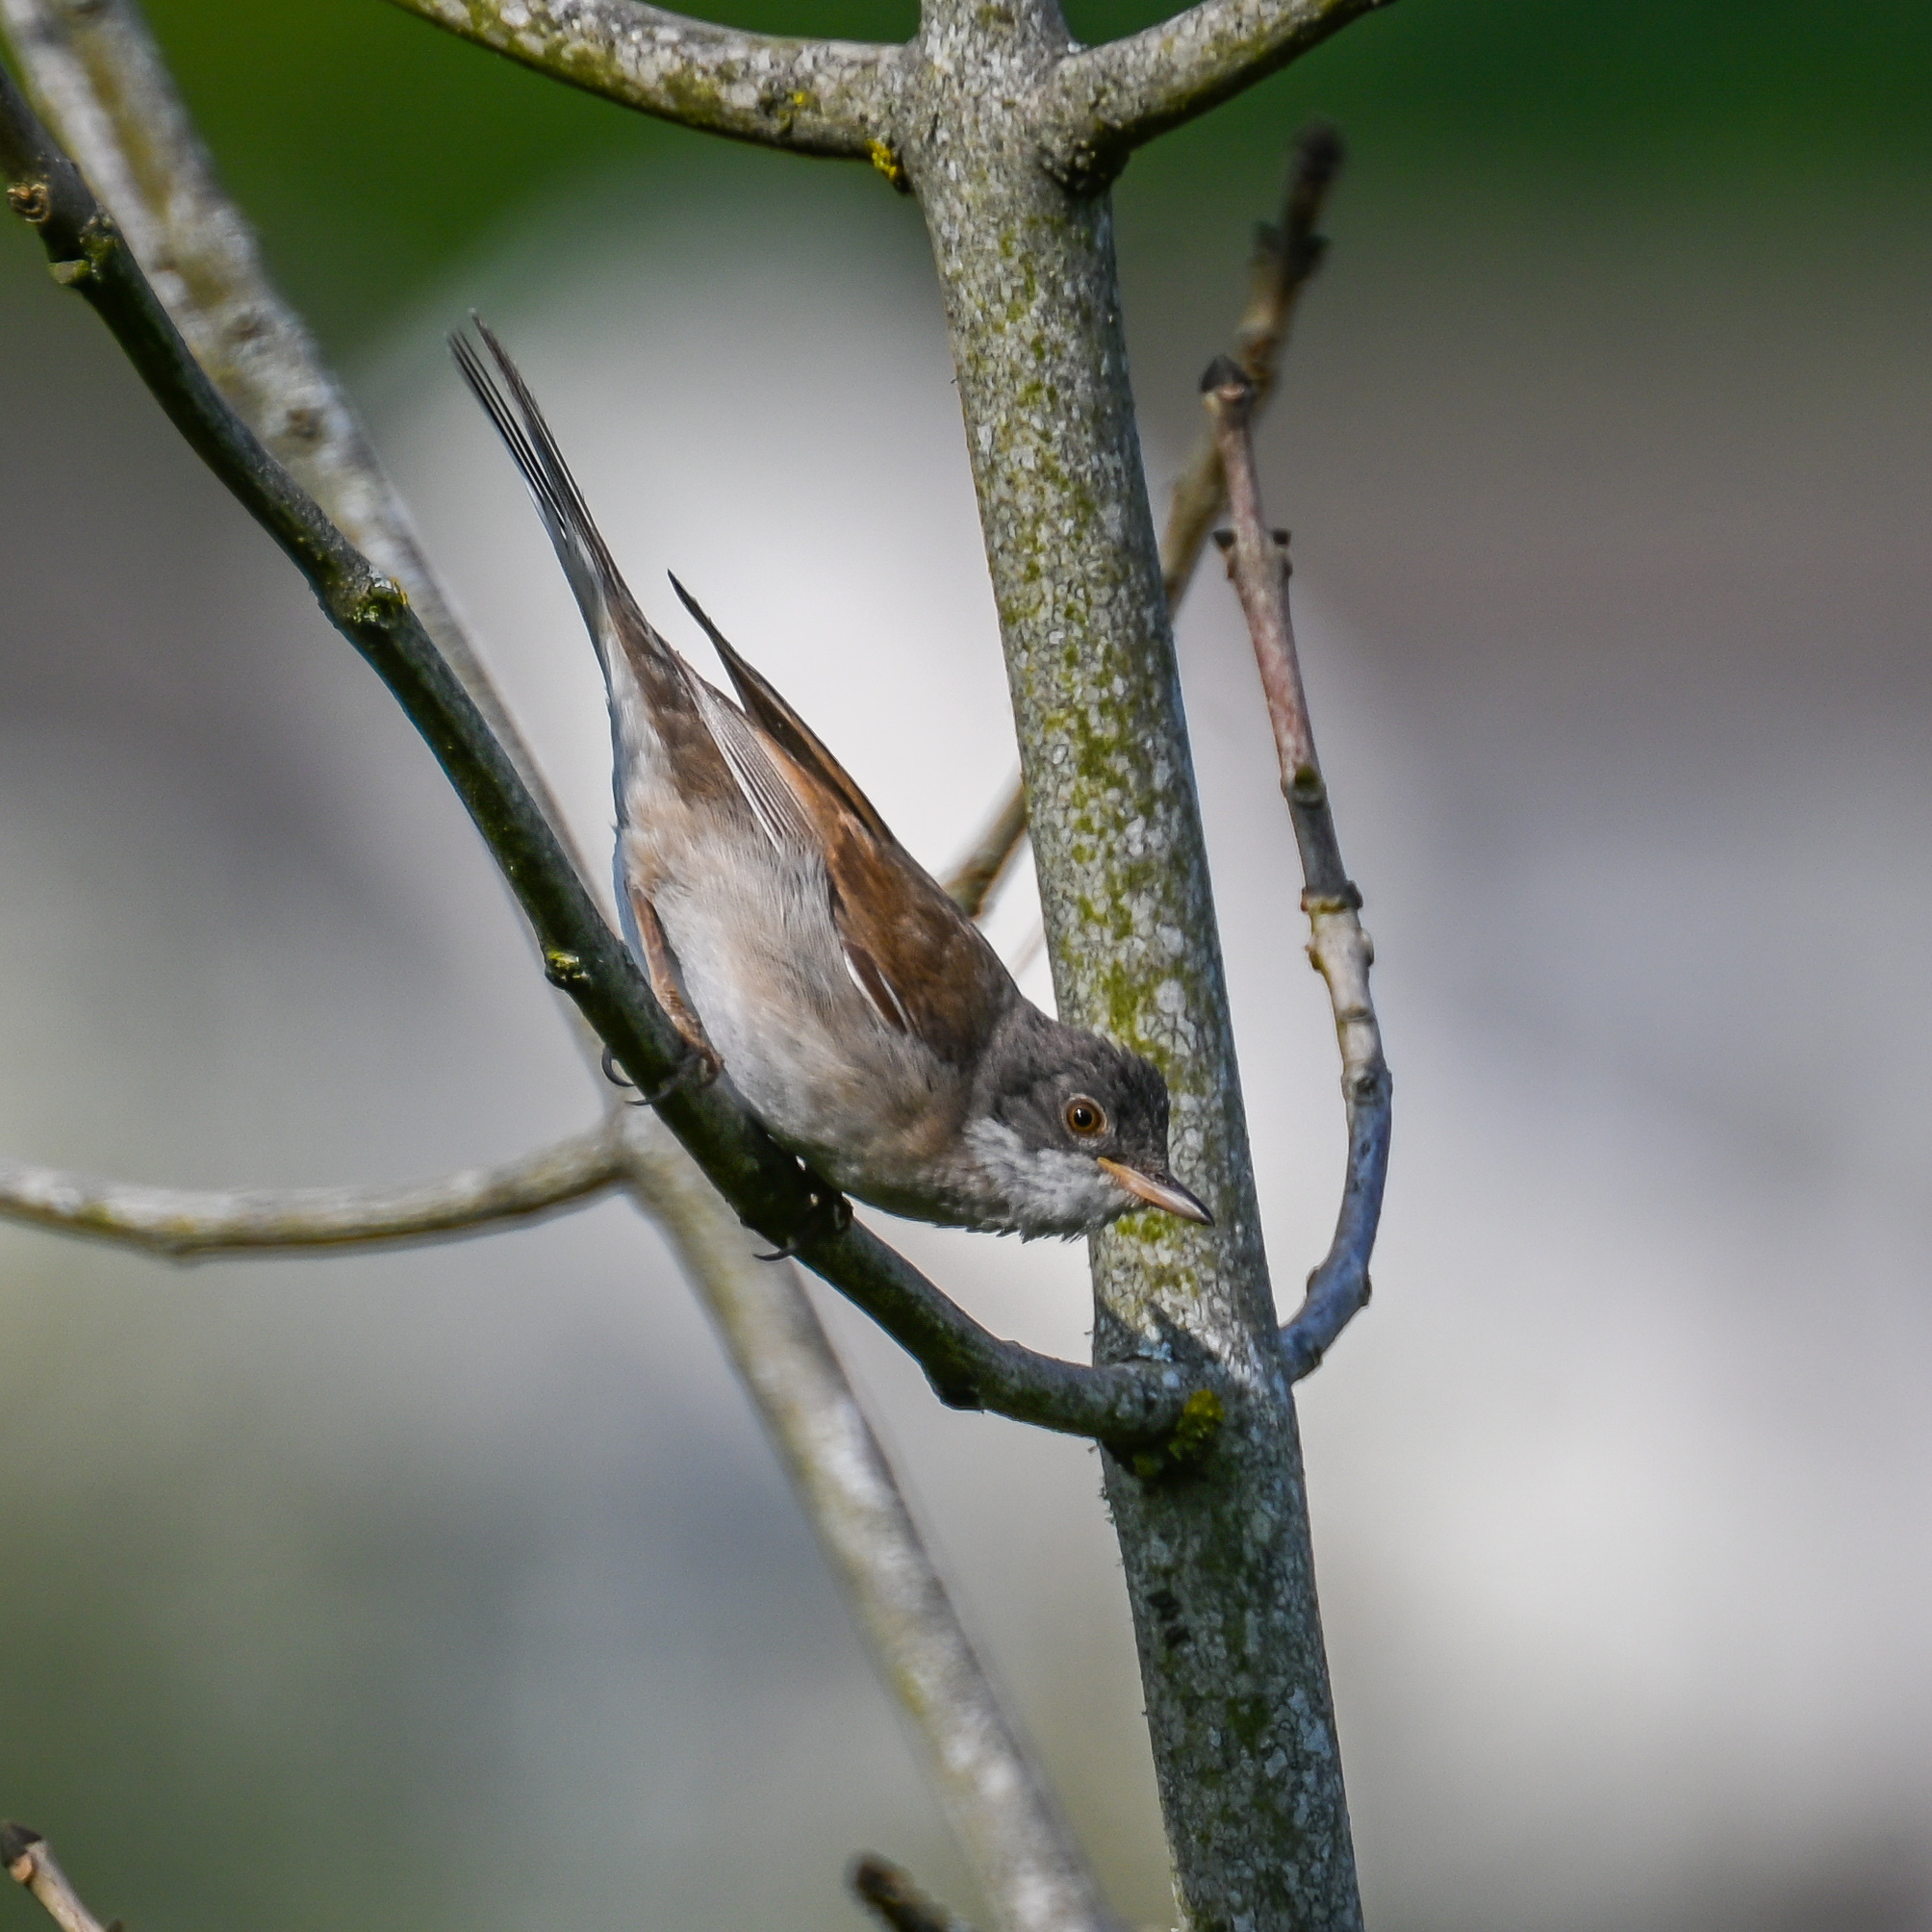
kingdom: Animalia
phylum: Chordata
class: Aves
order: Passeriformes
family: Sylviidae
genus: Sylvia
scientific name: Sylvia communis
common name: Common whitethroat
